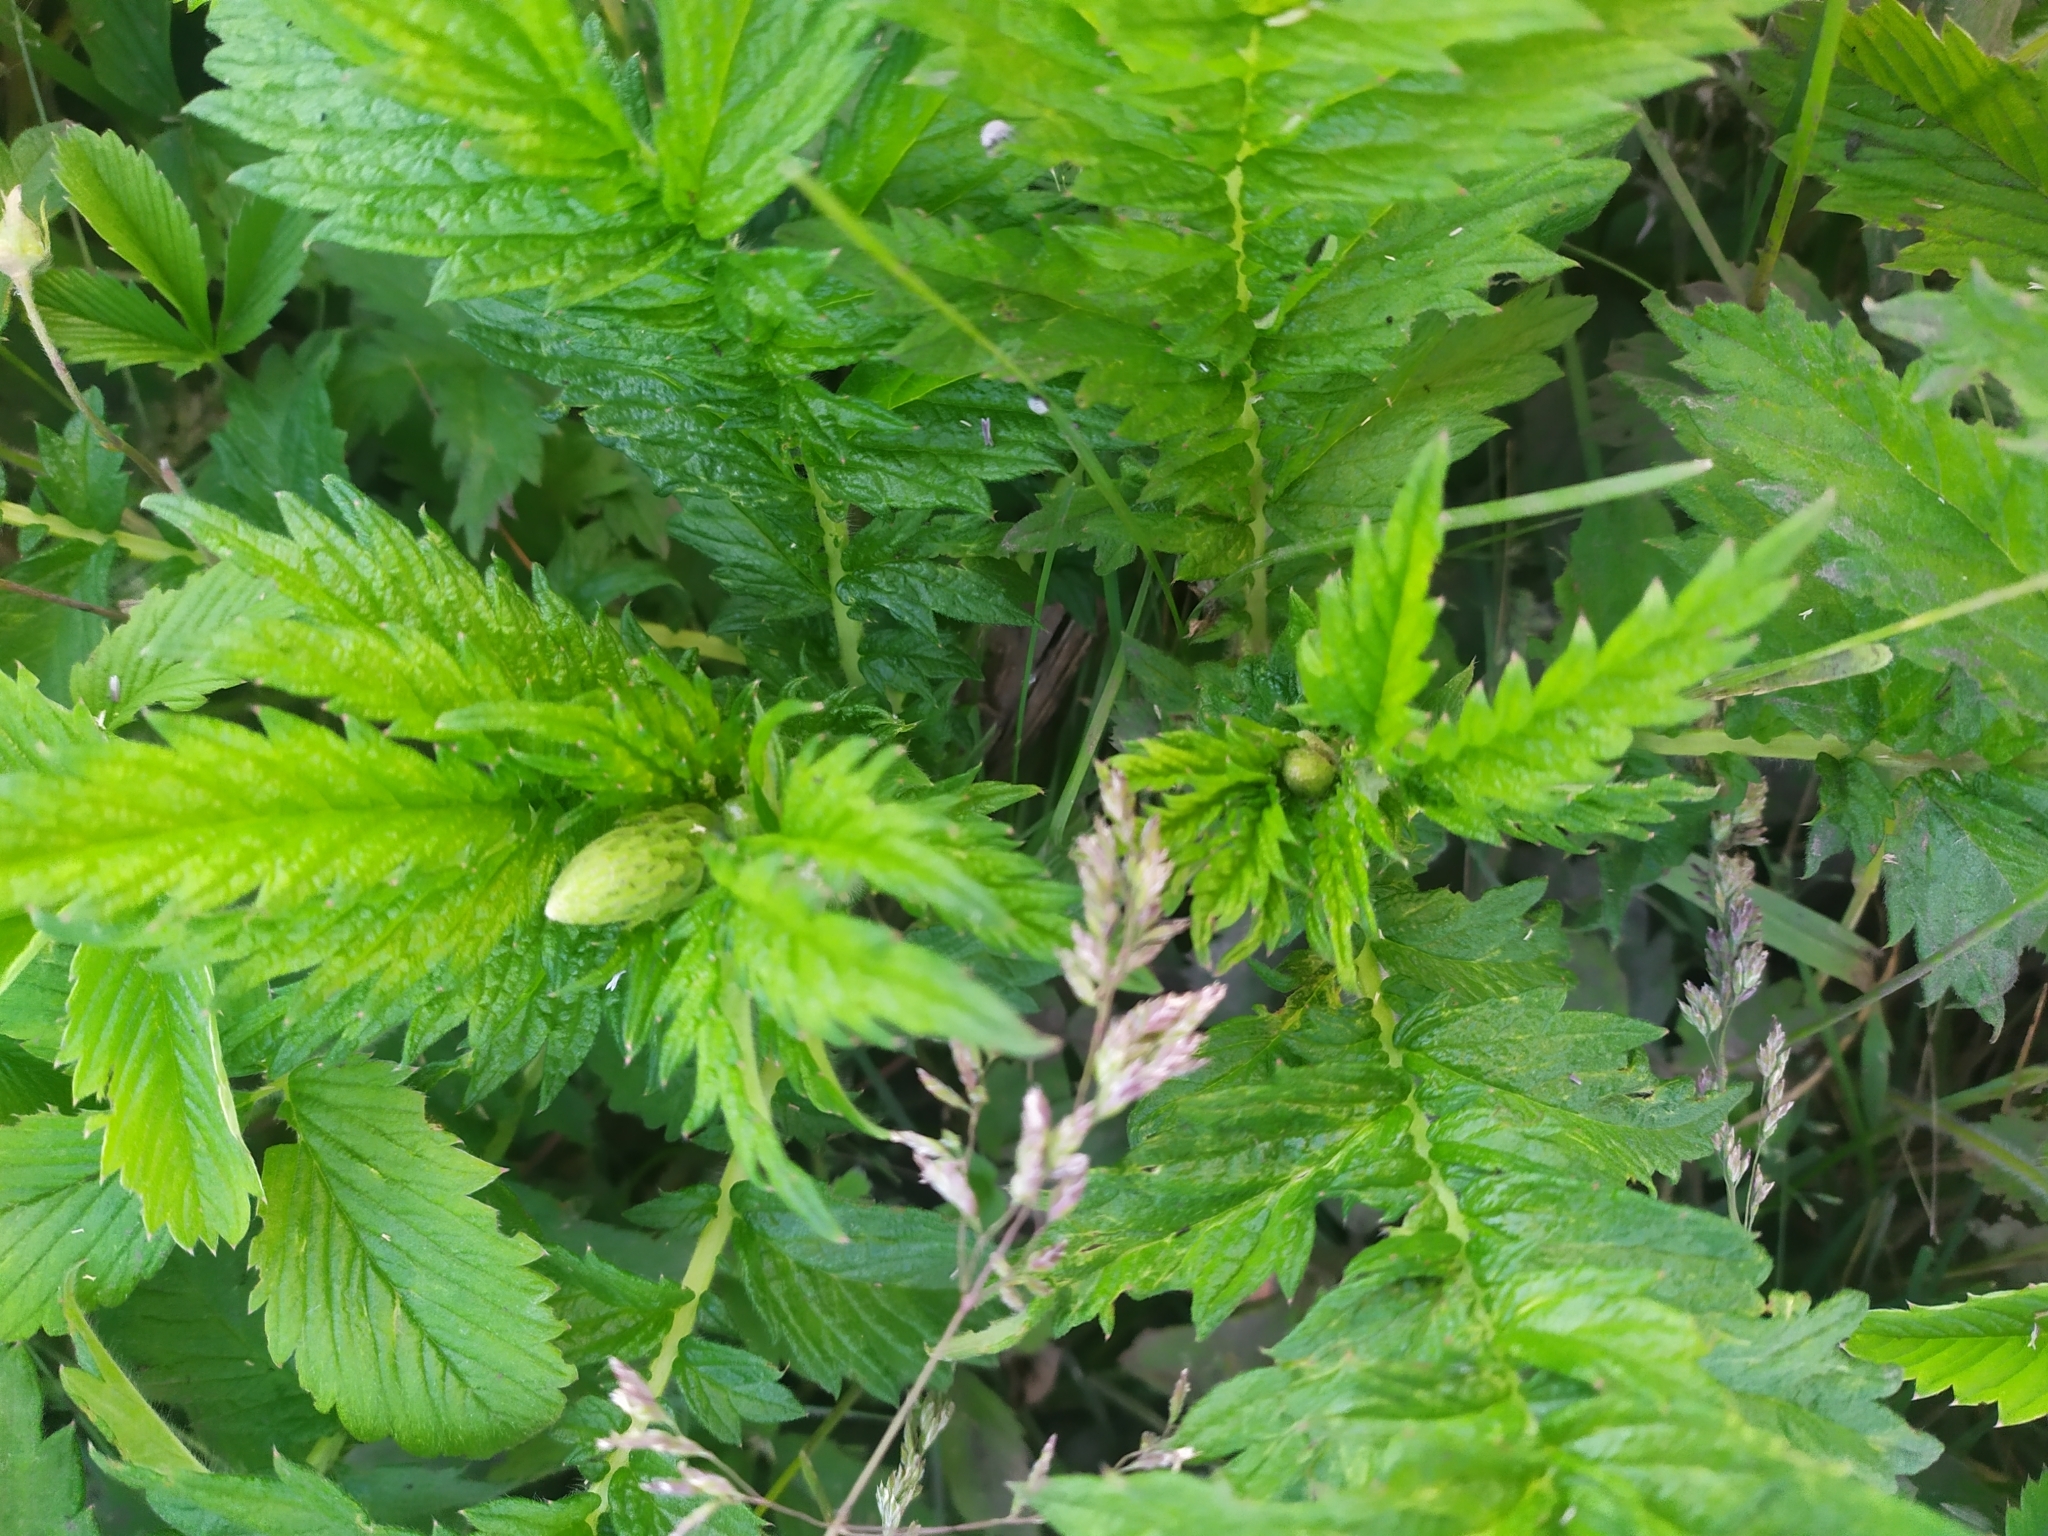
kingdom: Plantae
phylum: Tracheophyta
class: Magnoliopsida
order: Rosales
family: Rosaceae
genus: Agrimonia
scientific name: Agrimonia eupatoria
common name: Agrimony
